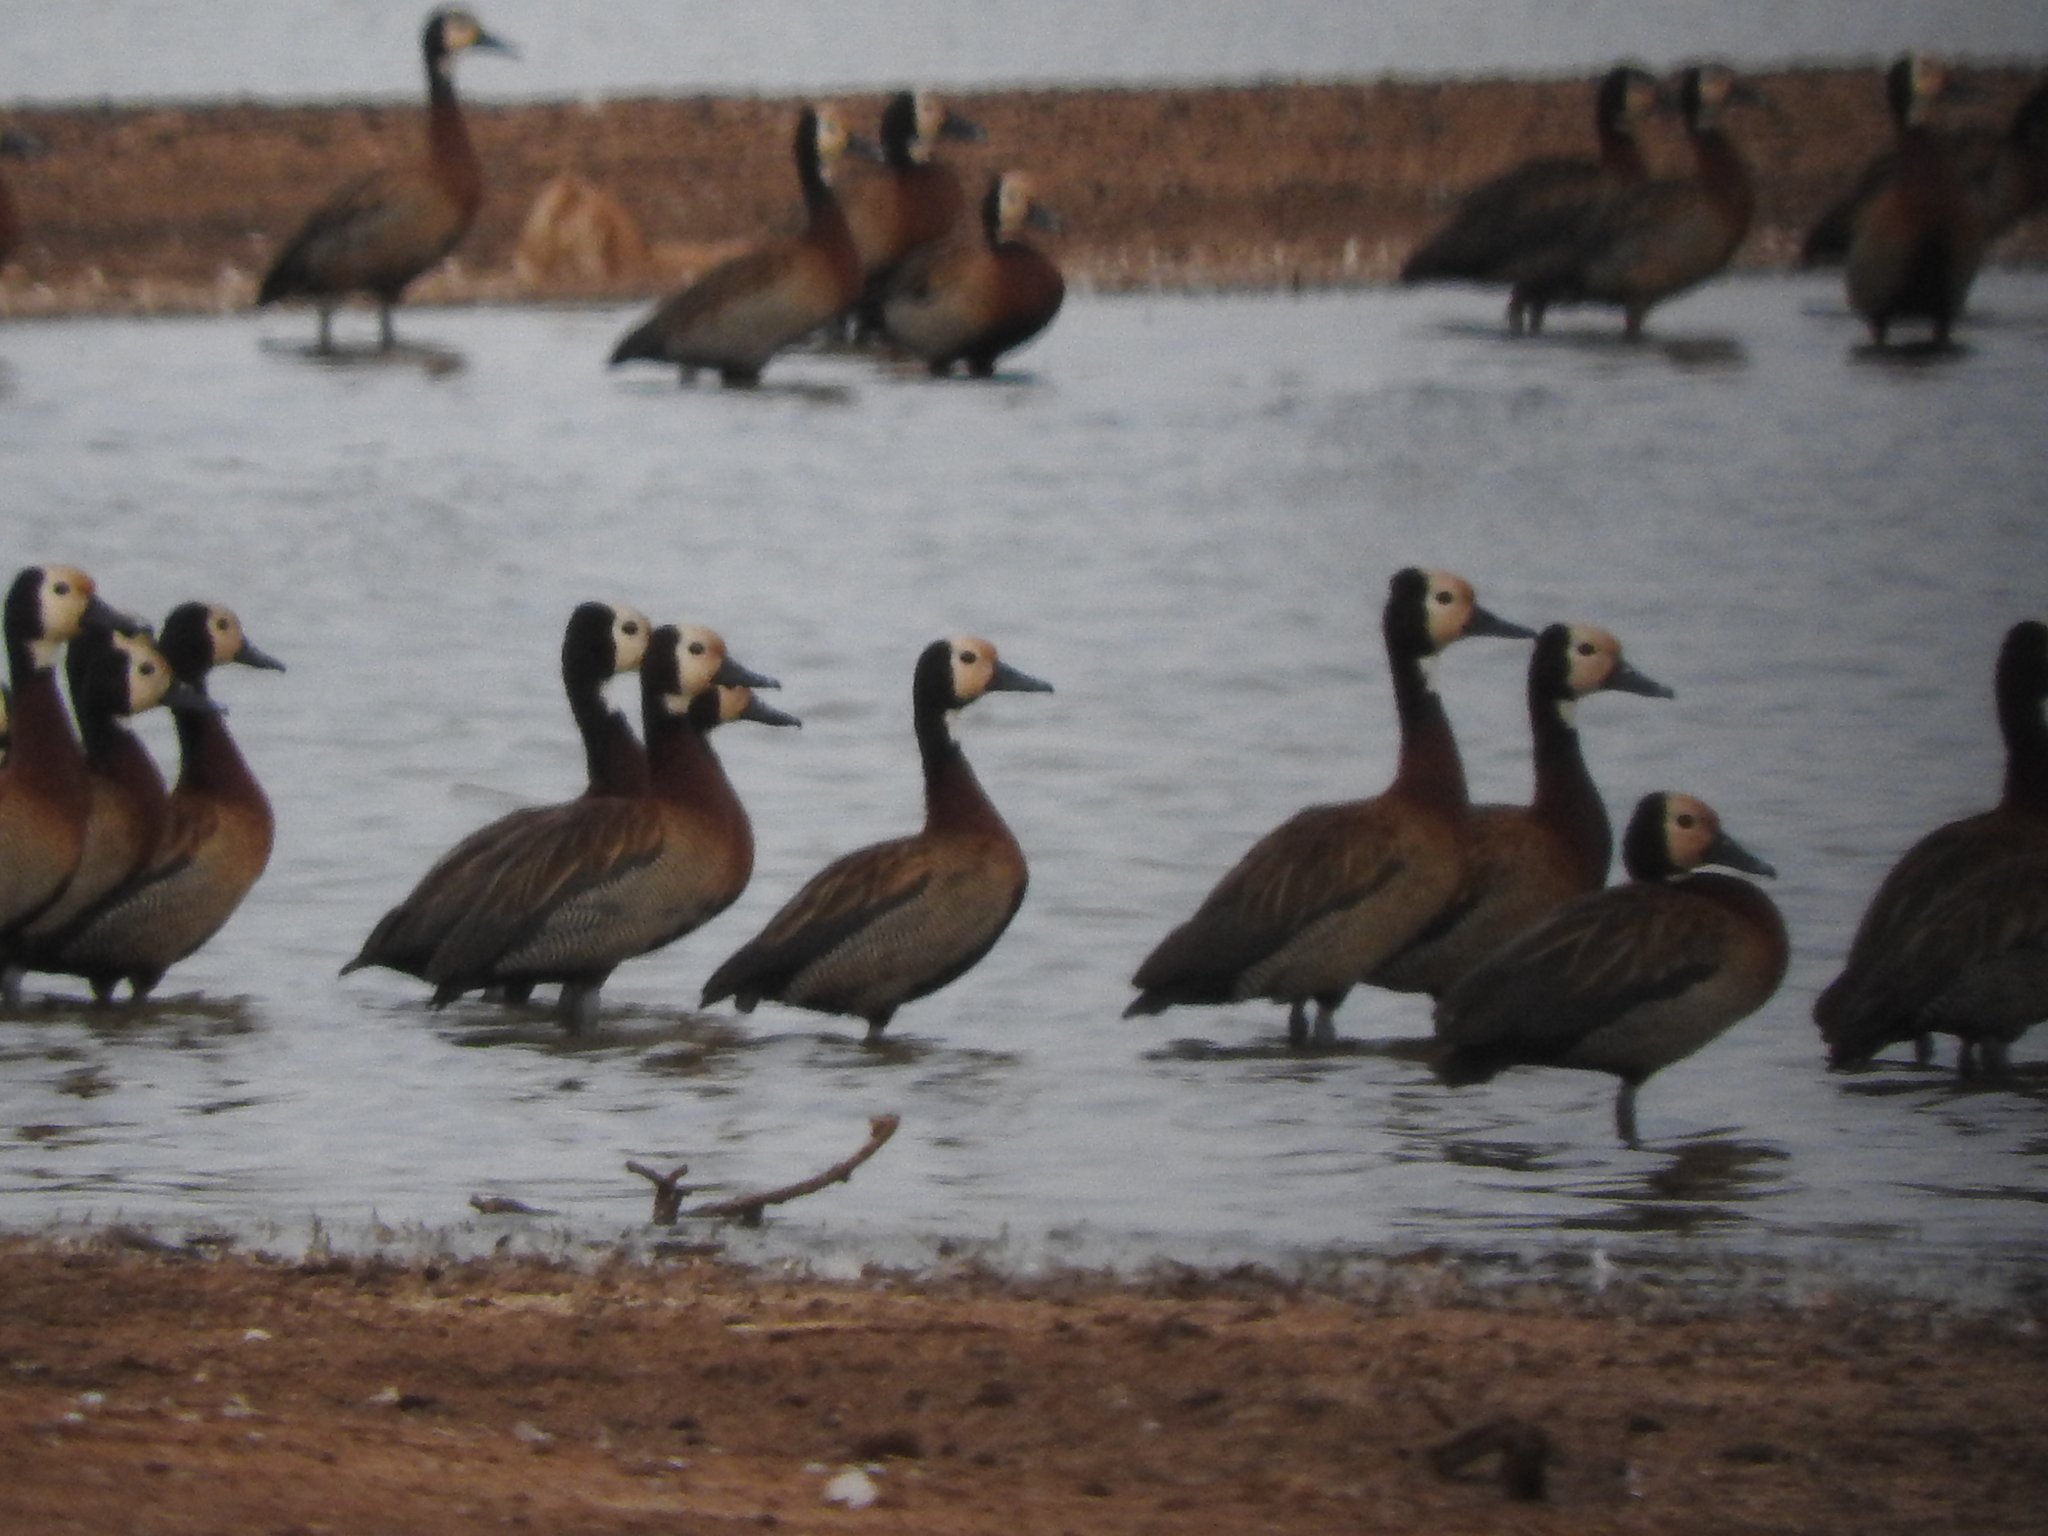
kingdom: Animalia
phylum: Chordata
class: Aves
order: Anseriformes
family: Anatidae
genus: Dendrocygna
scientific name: Dendrocygna viduata
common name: White-faced whistling duck
